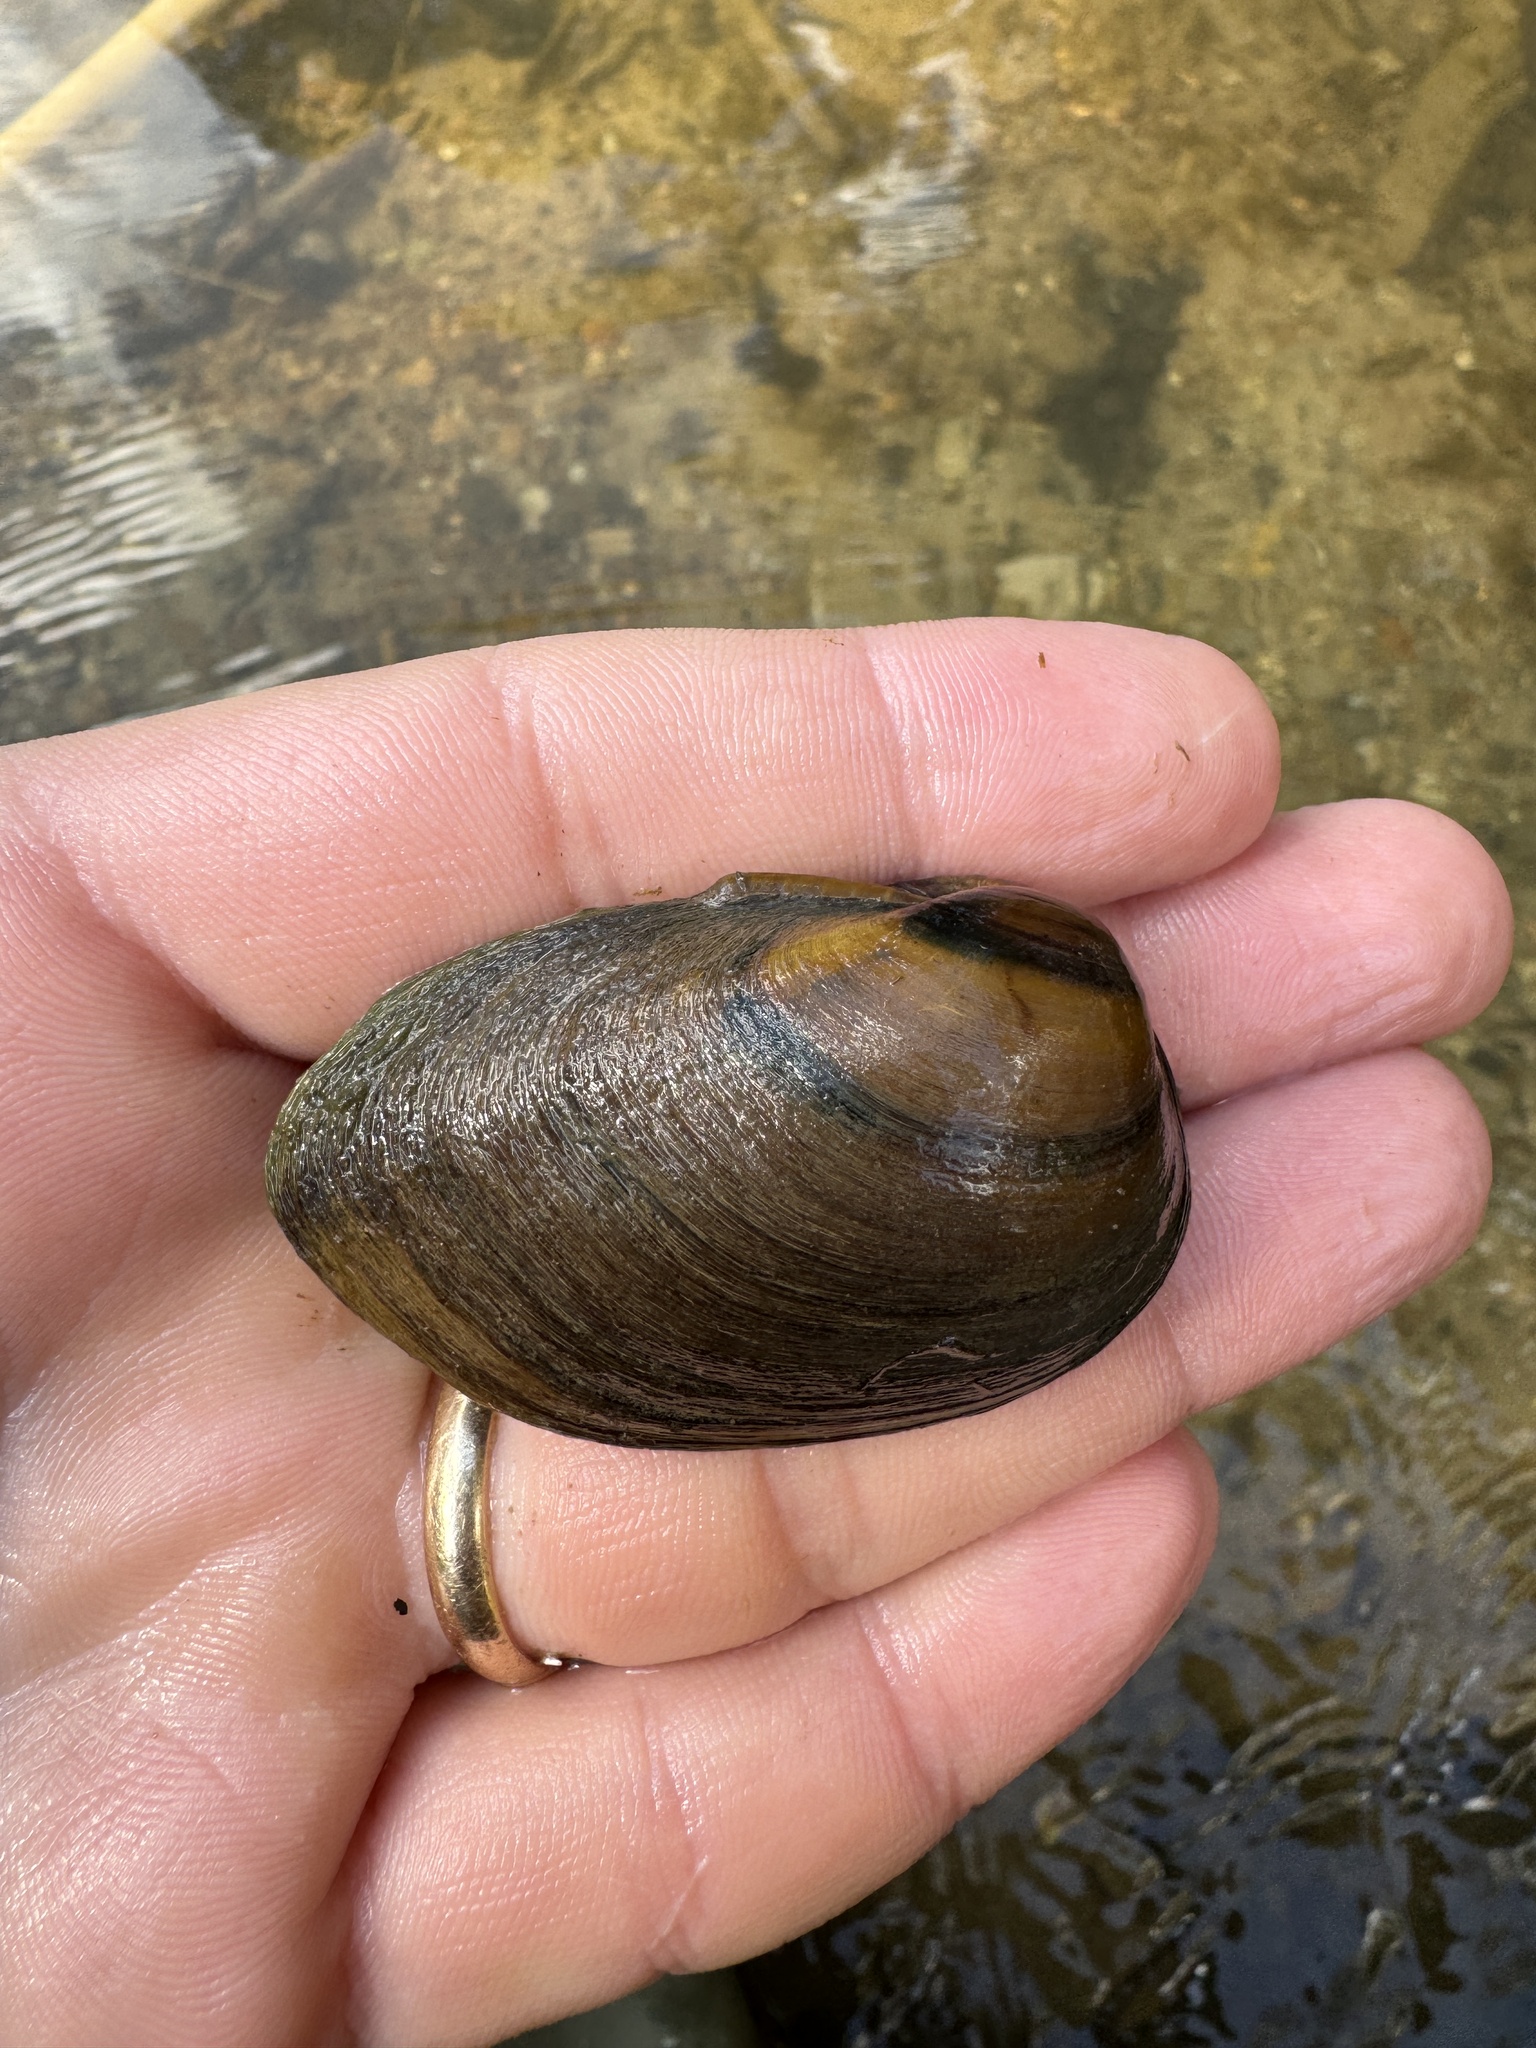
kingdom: Animalia
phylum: Mollusca
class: Bivalvia
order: Unionida
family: Unionidae
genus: Pleurobema
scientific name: Pleurobema decisum
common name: Southern clubshell
